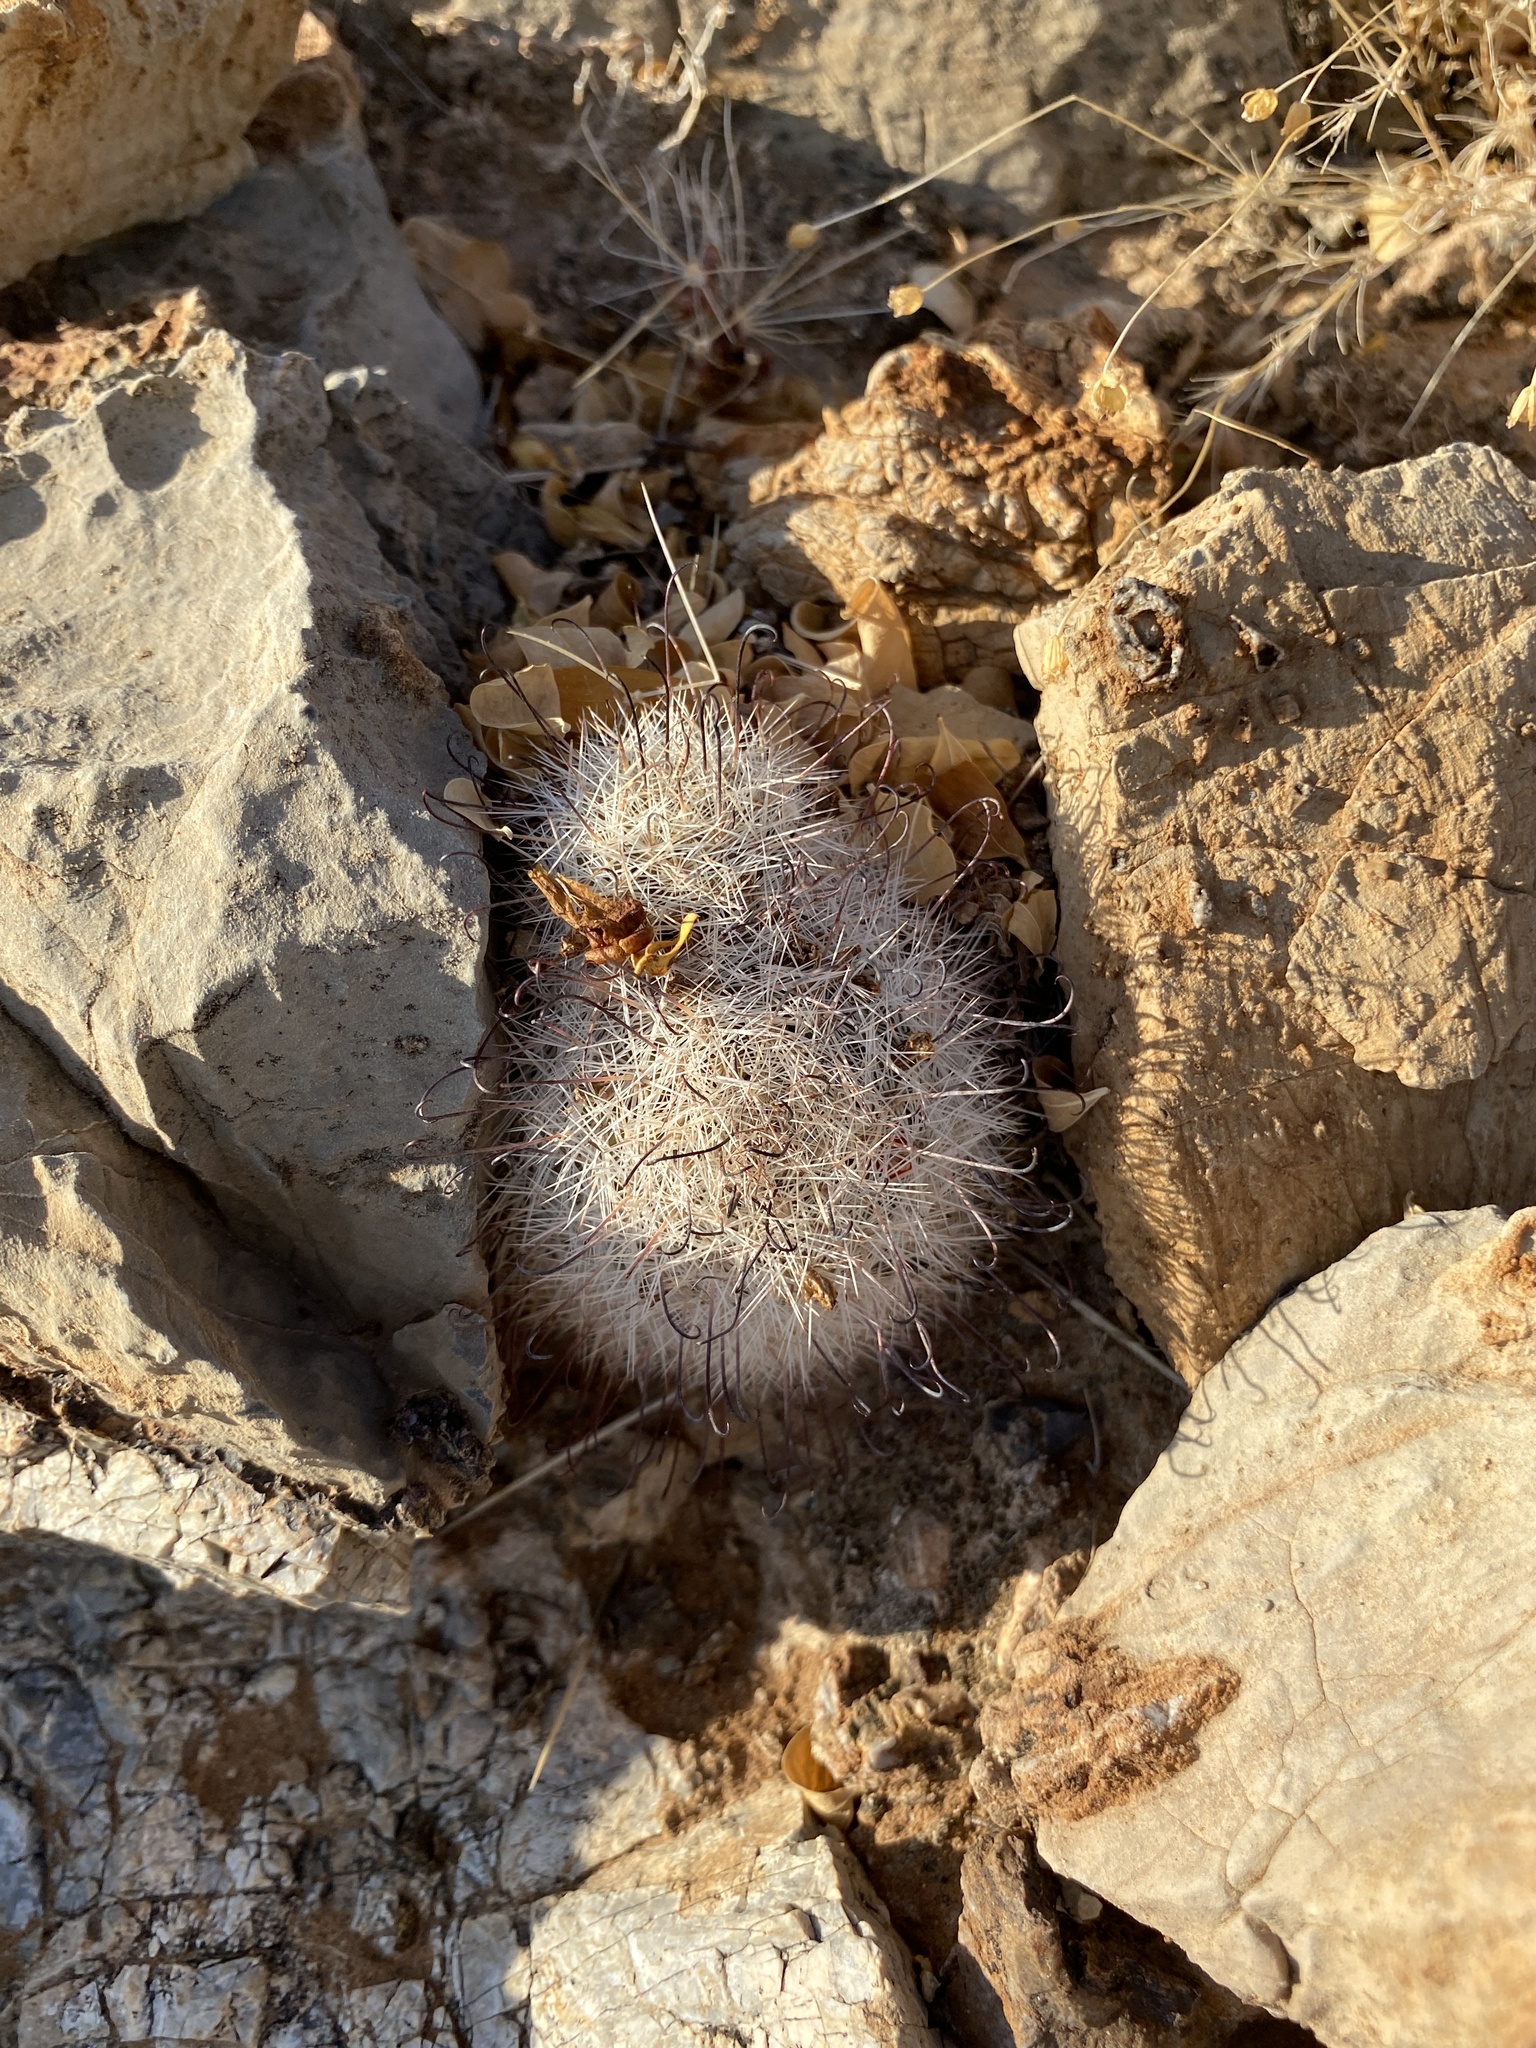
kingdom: Plantae
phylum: Tracheophyta
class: Magnoliopsida
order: Caryophyllales
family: Cactaceae
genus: Cochemiea
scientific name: Cochemiea grahamii
